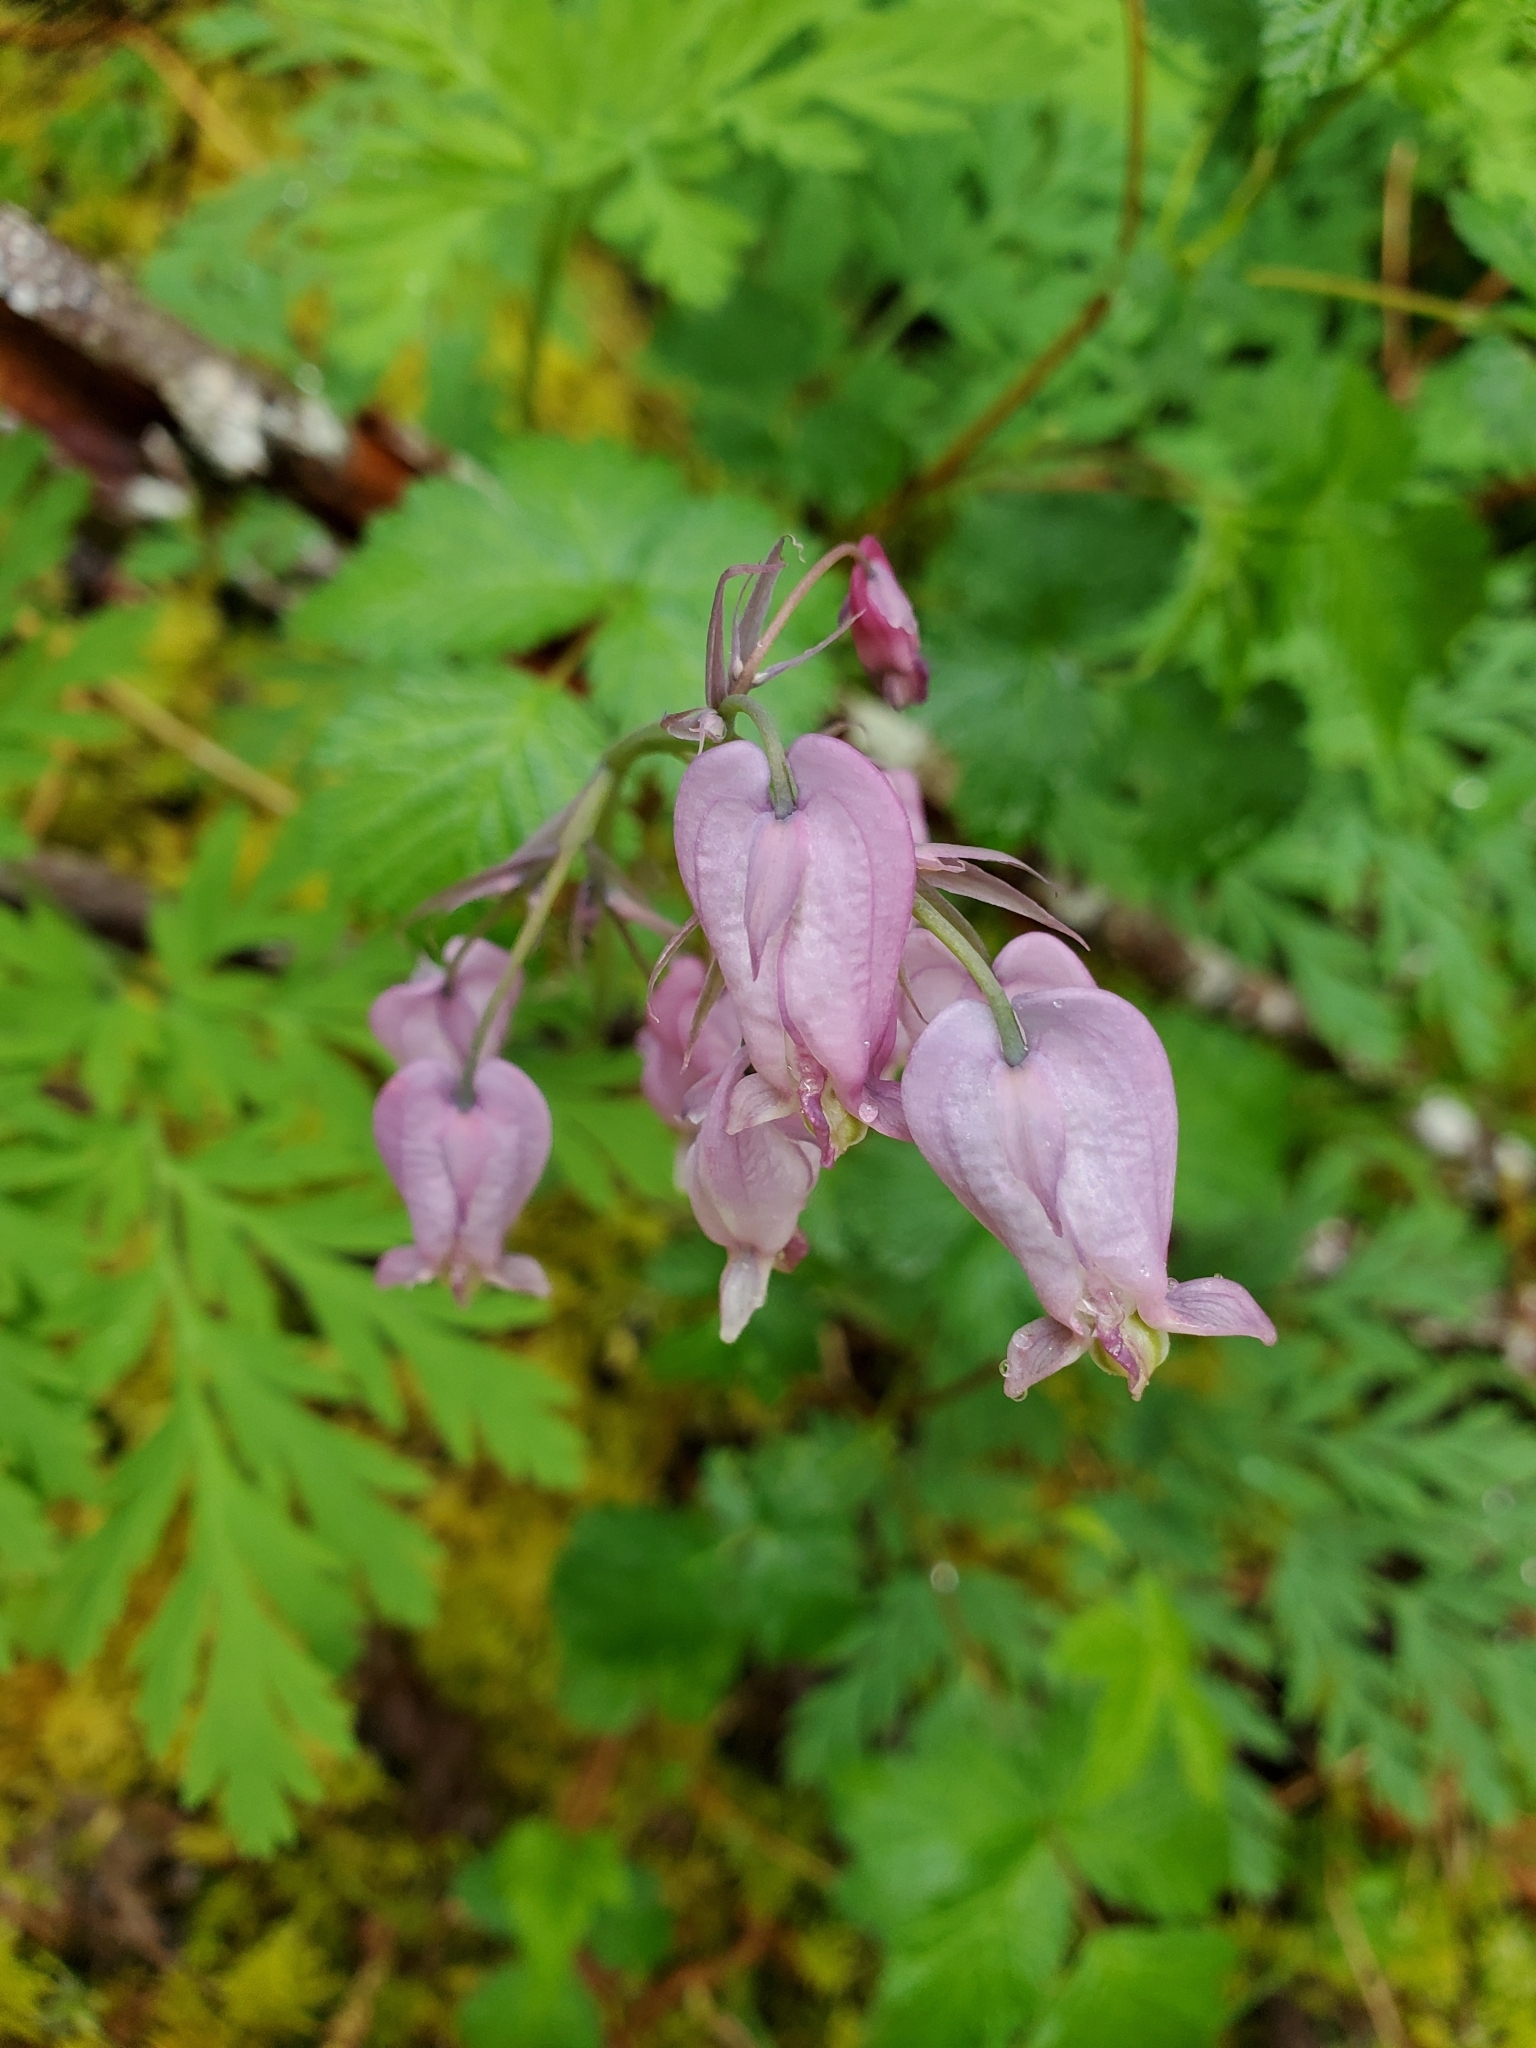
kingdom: Plantae
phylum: Tracheophyta
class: Magnoliopsida
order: Ranunculales
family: Papaveraceae
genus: Dicentra
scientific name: Dicentra formosa
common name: Bleeding-heart
